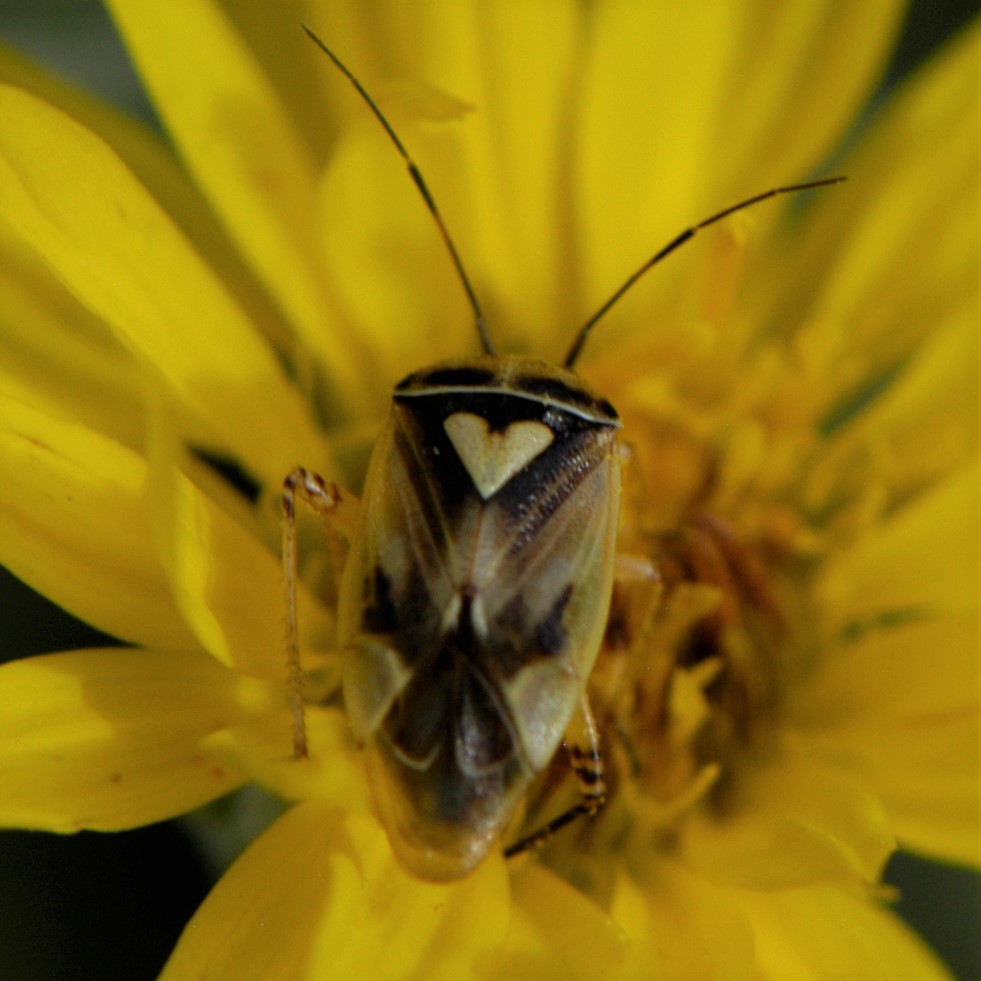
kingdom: Animalia
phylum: Arthropoda
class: Insecta
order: Hemiptera
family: Miridae
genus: Lygus
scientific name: Lygus atriflavus
